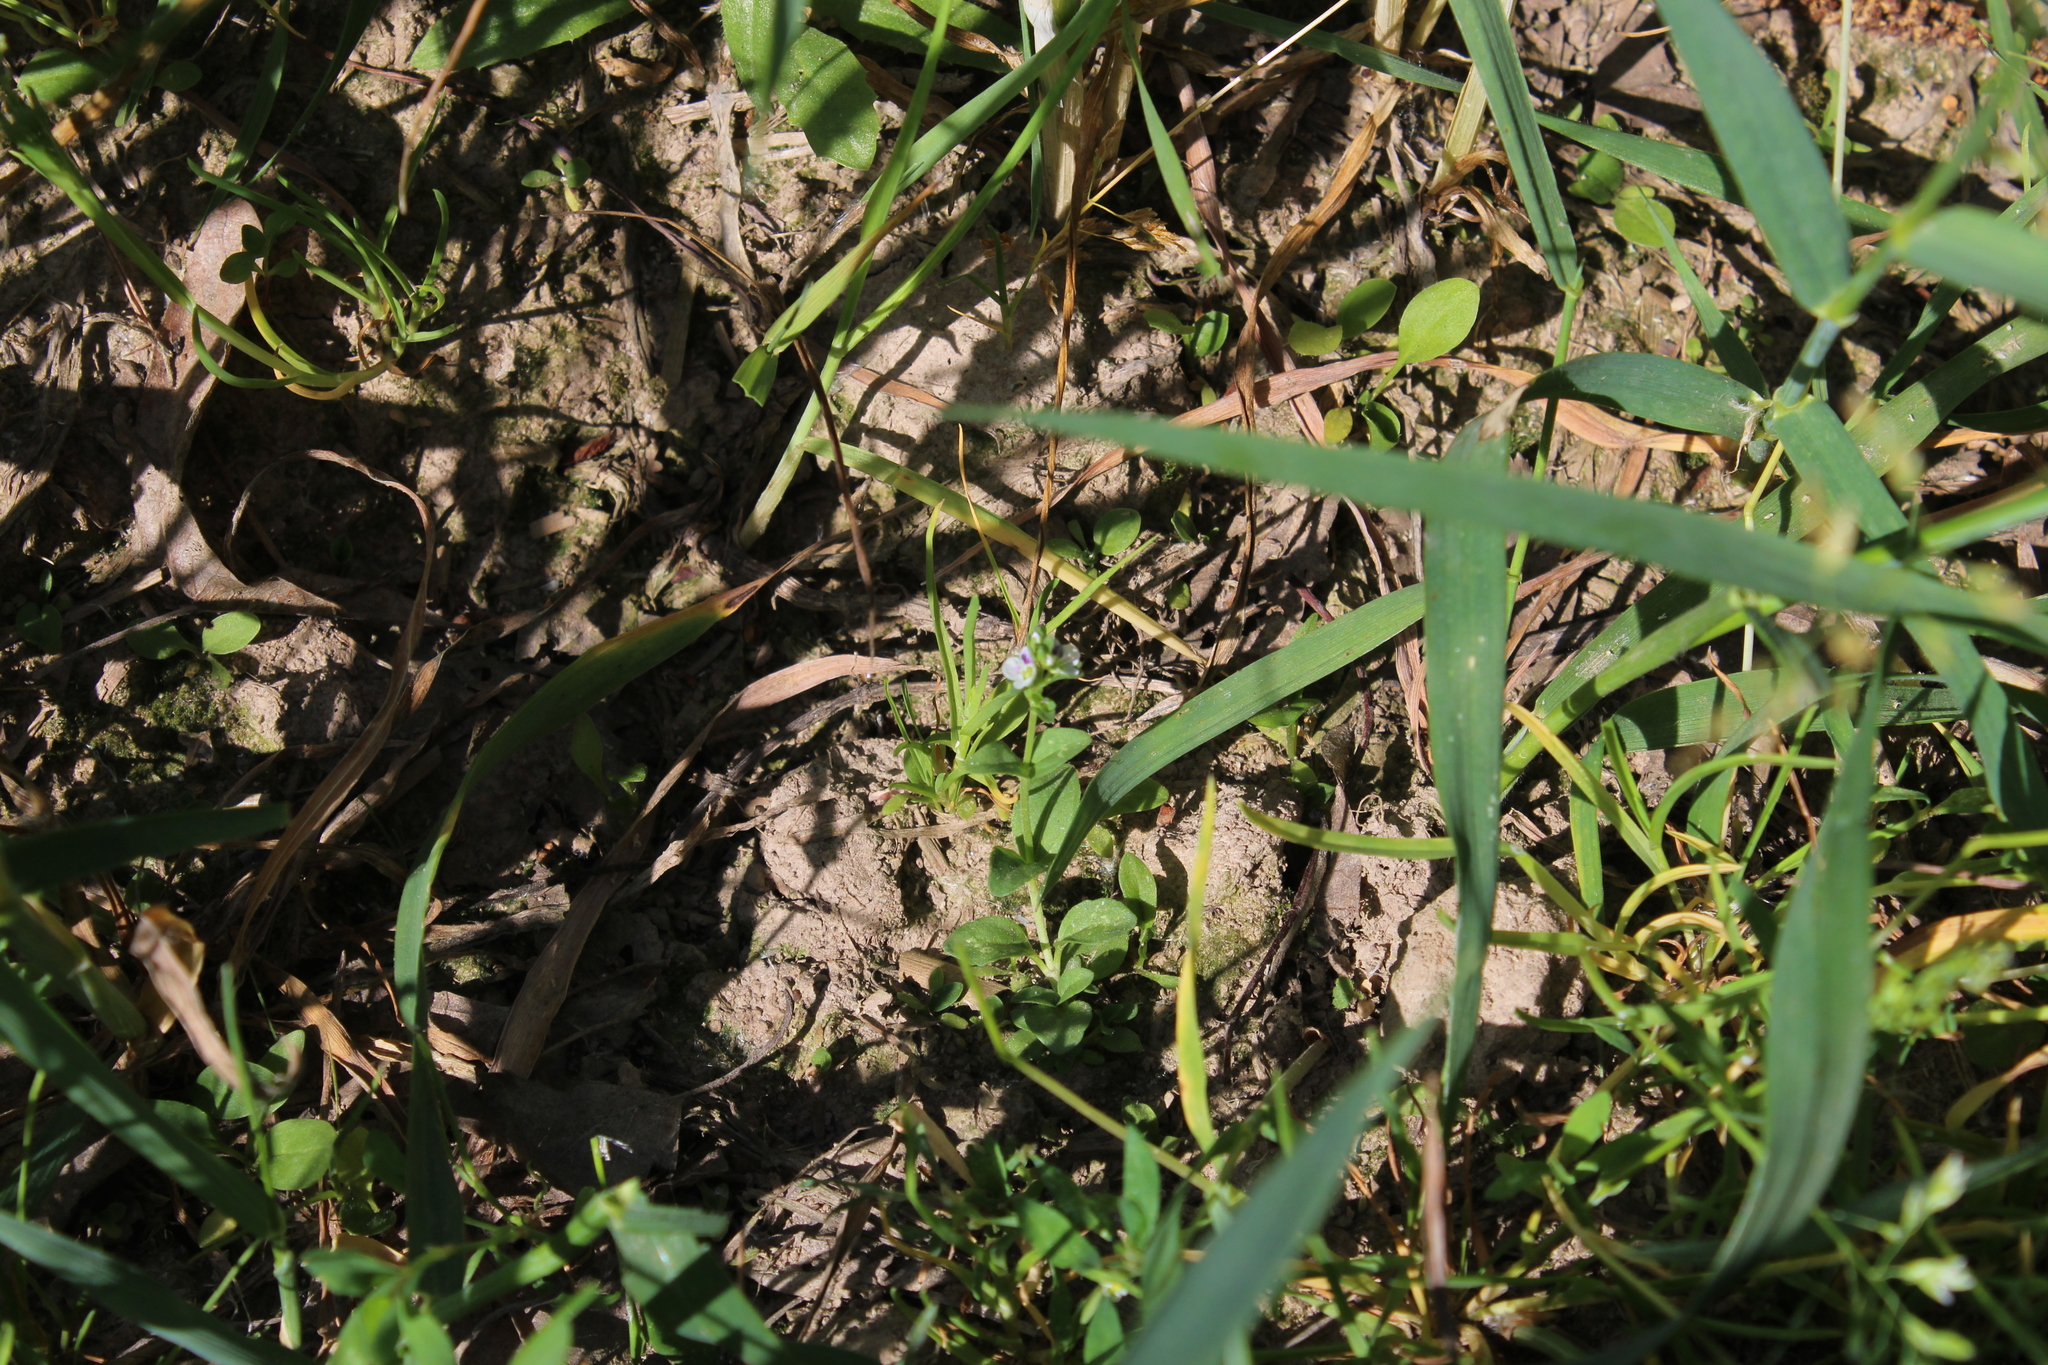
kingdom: Plantae
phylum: Tracheophyta
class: Magnoliopsida
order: Lamiales
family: Plantaginaceae
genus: Veronica
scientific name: Veronica serpyllifolia
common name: Thyme-leaved speedwell
